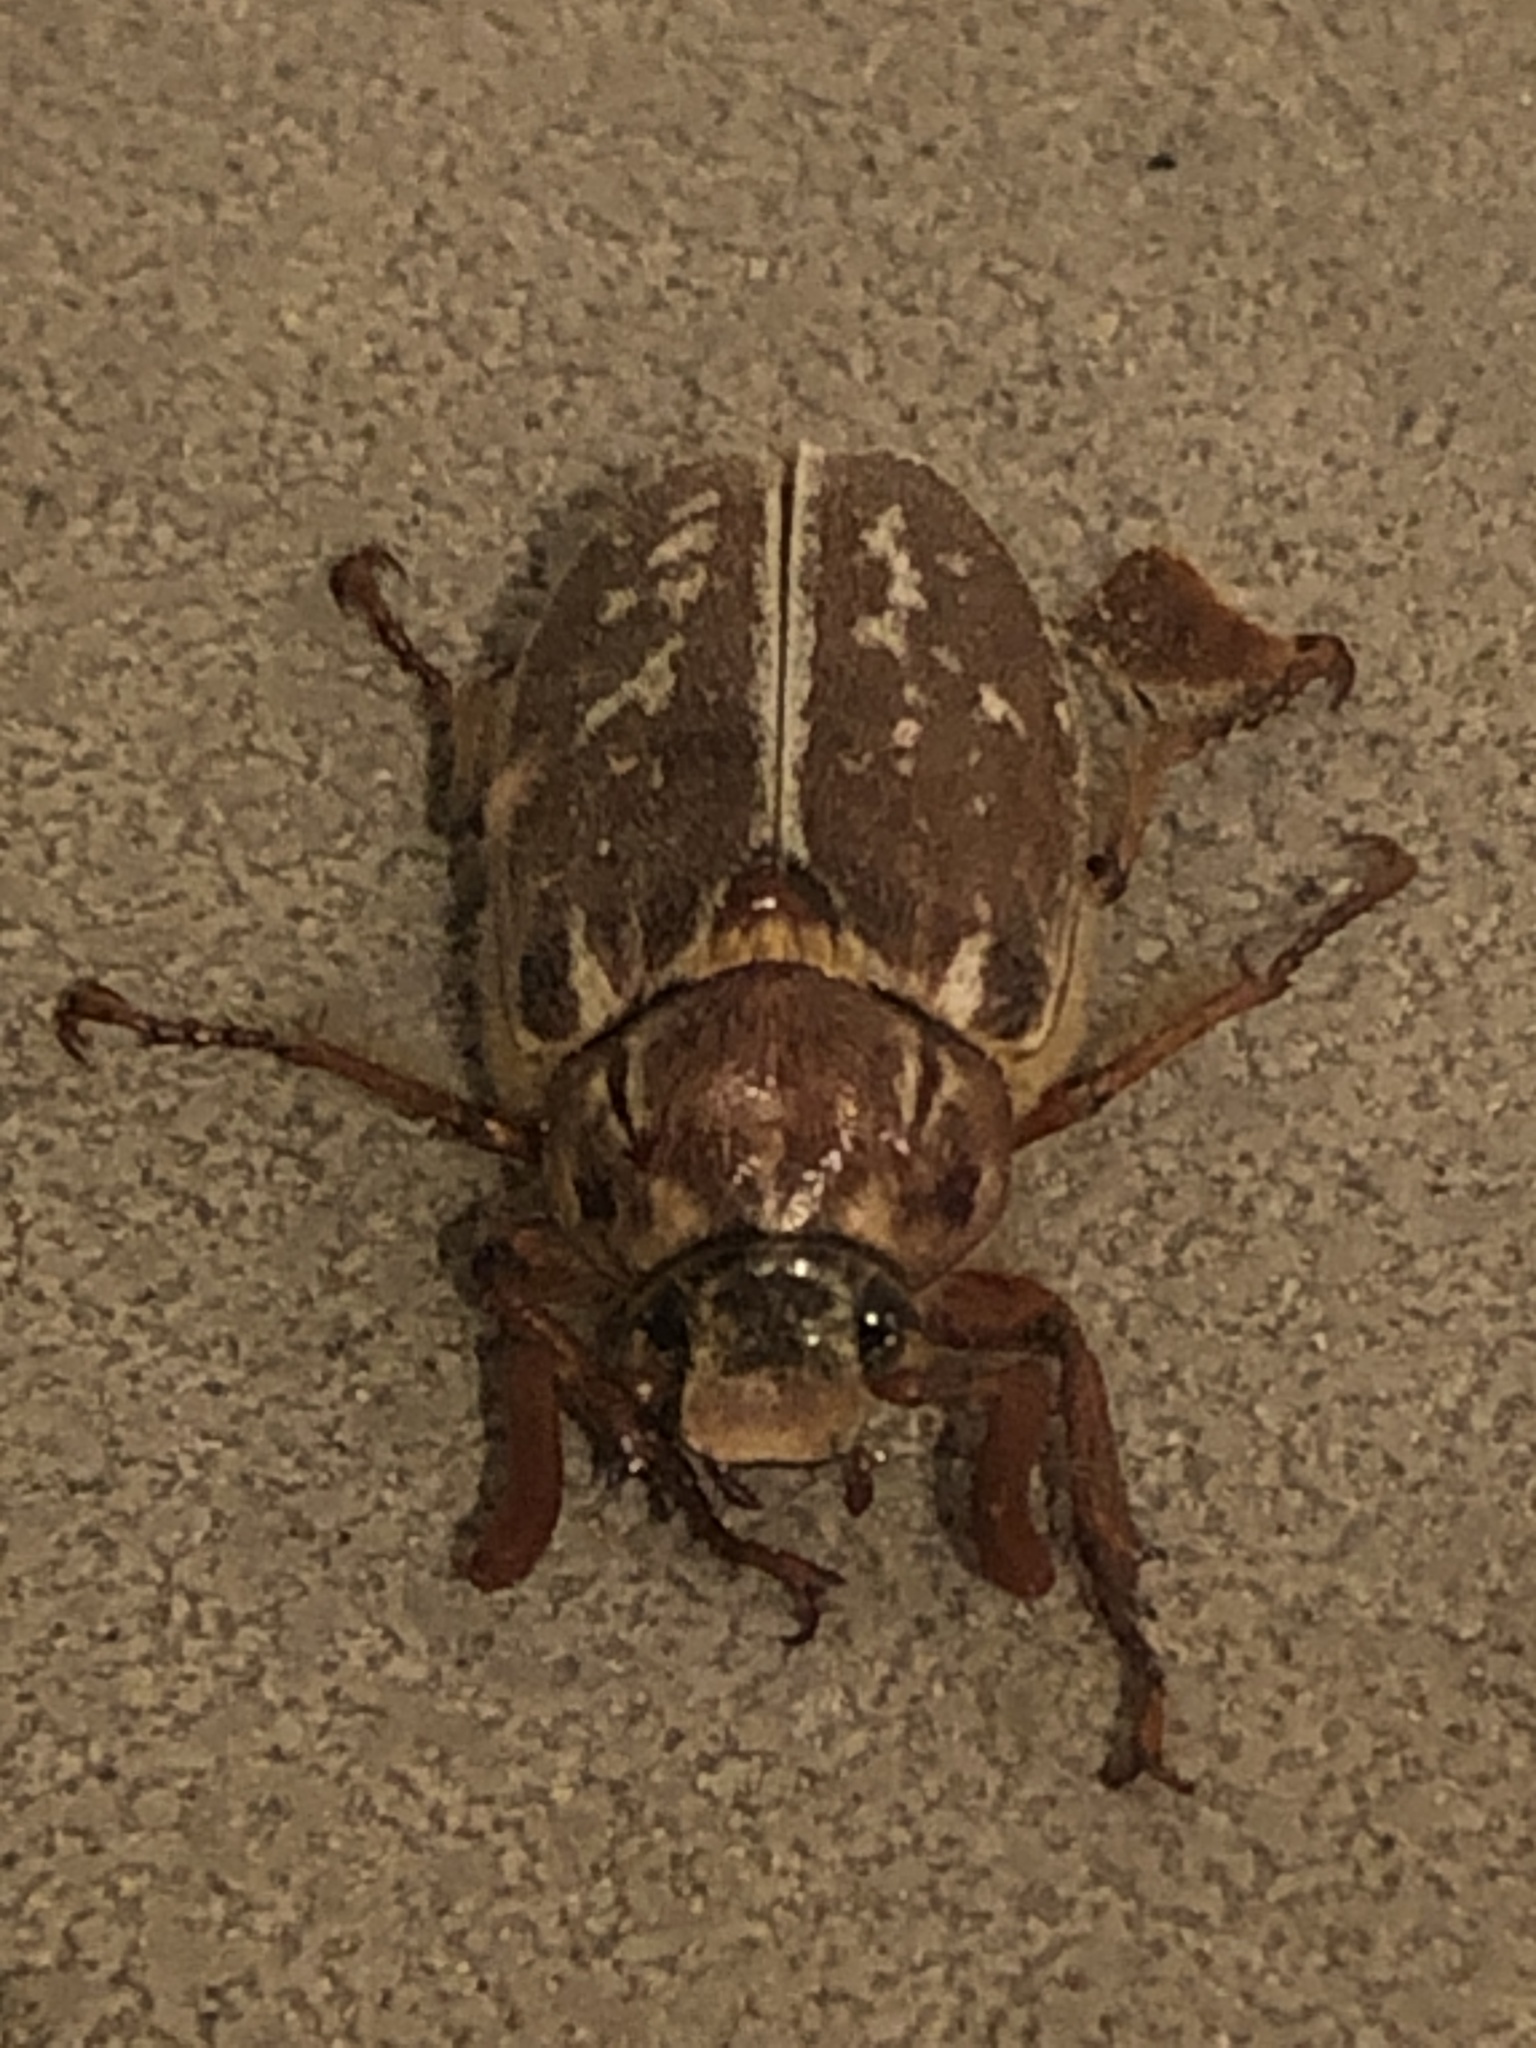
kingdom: Animalia
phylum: Arthropoda
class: Insecta
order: Coleoptera
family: Scarabaeidae
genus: Polyphylla
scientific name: Polyphylla variolosa
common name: Variegated june beetle
